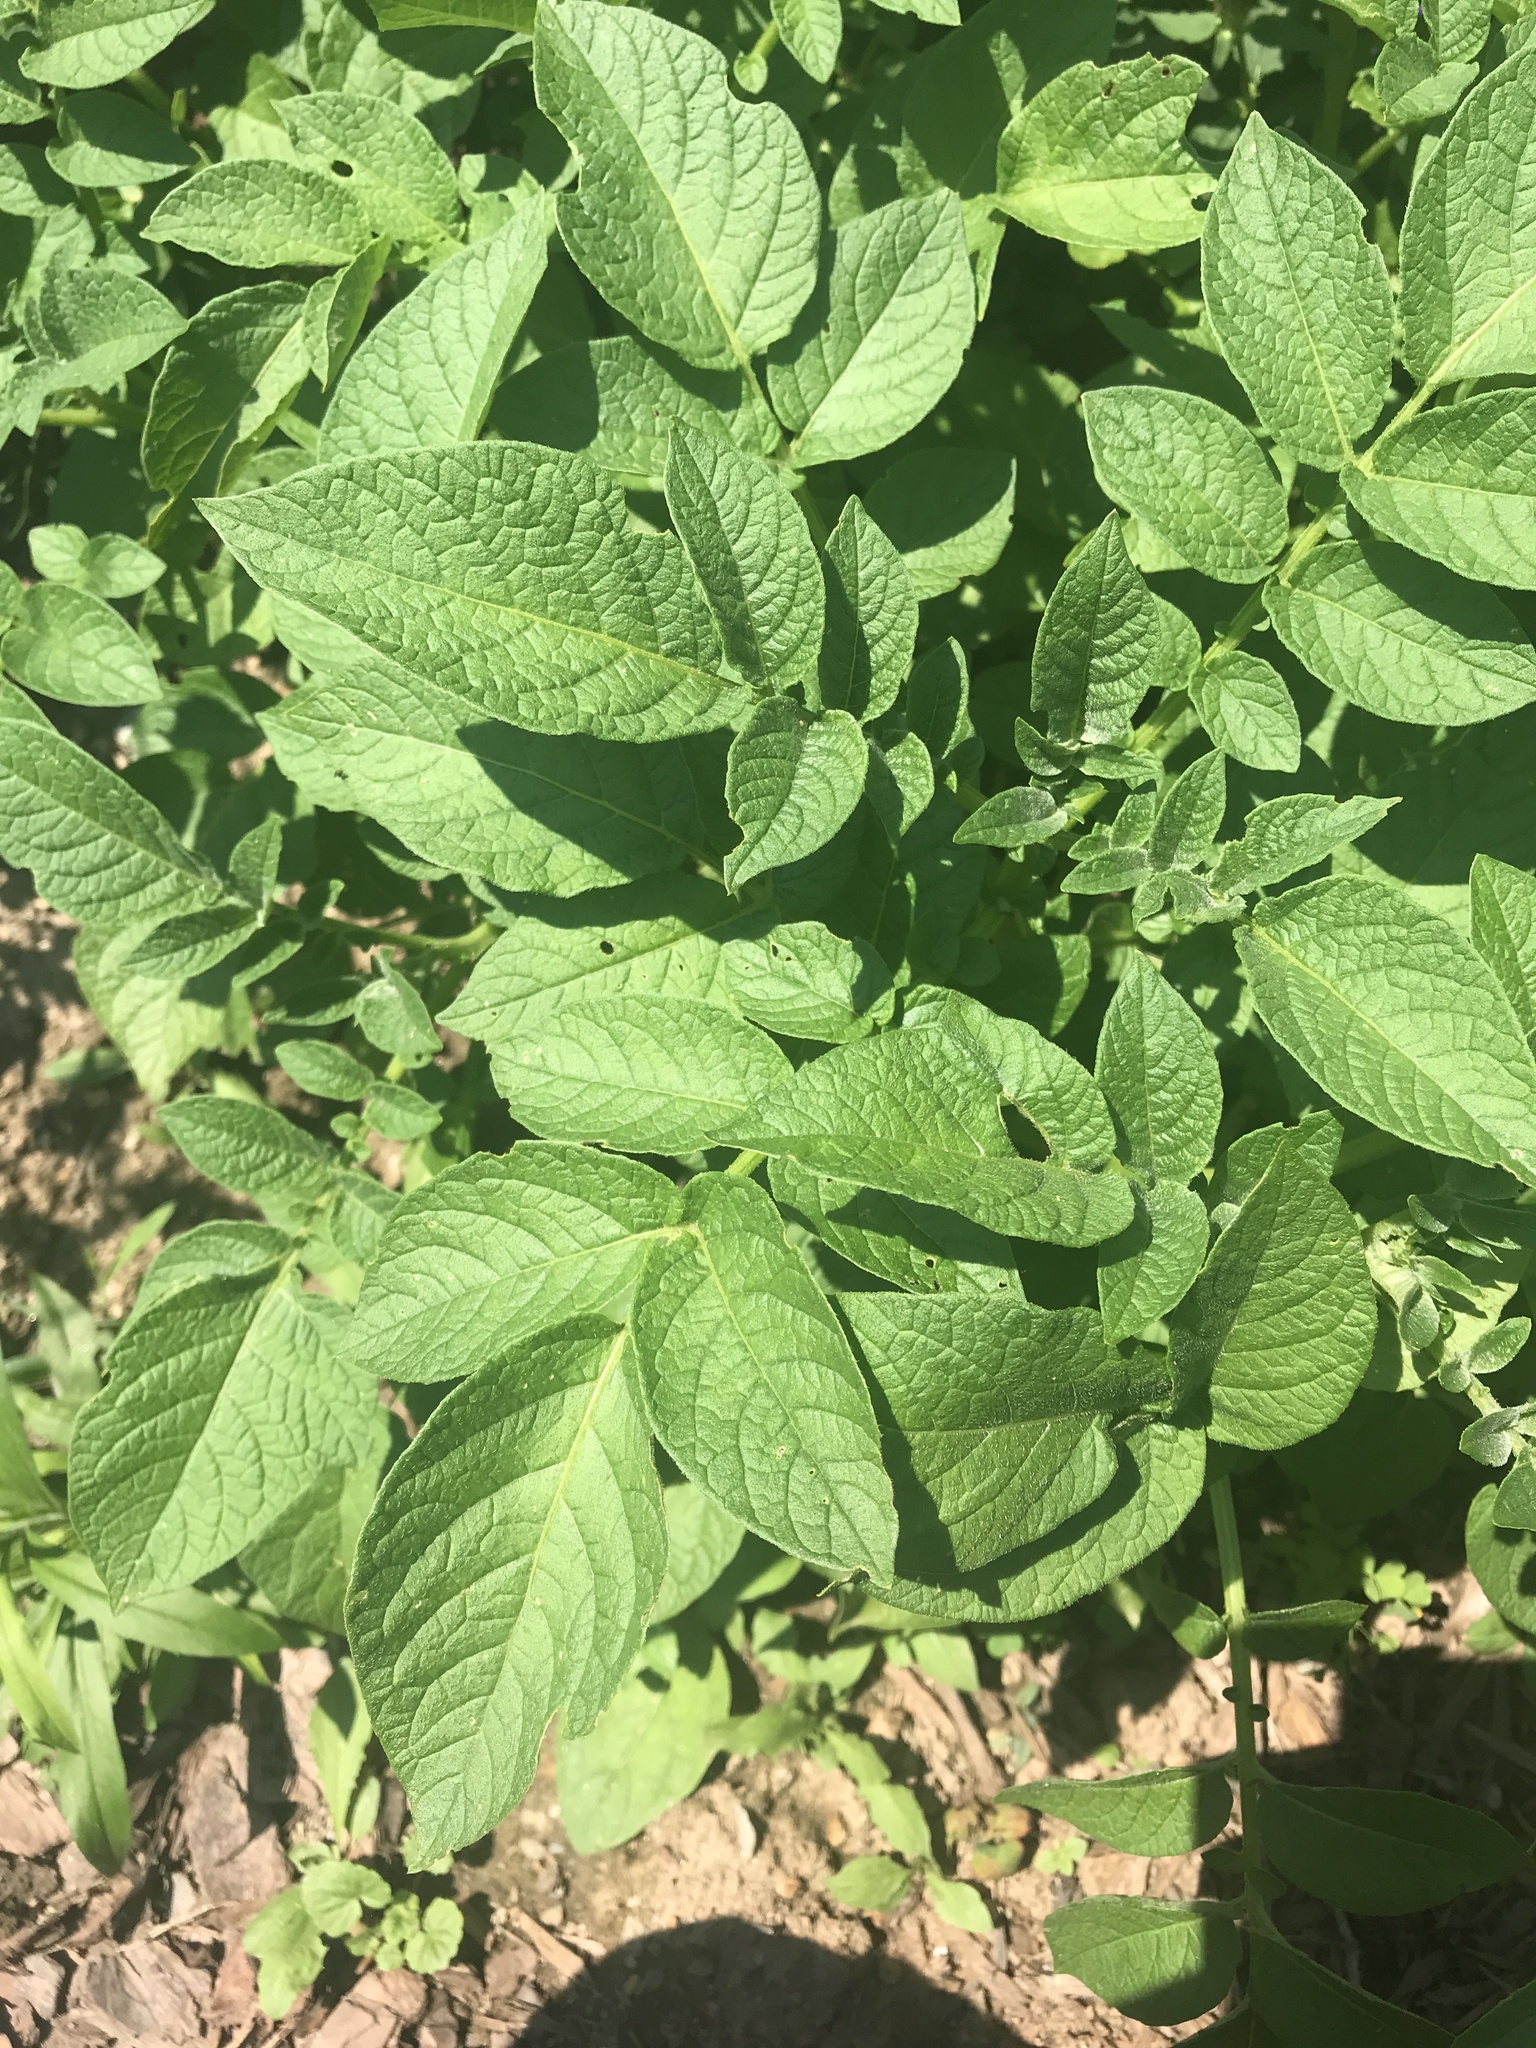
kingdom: Plantae
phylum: Tracheophyta
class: Magnoliopsida
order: Solanales
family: Solanaceae
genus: Solanum
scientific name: Solanum tuberosum
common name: Potato
